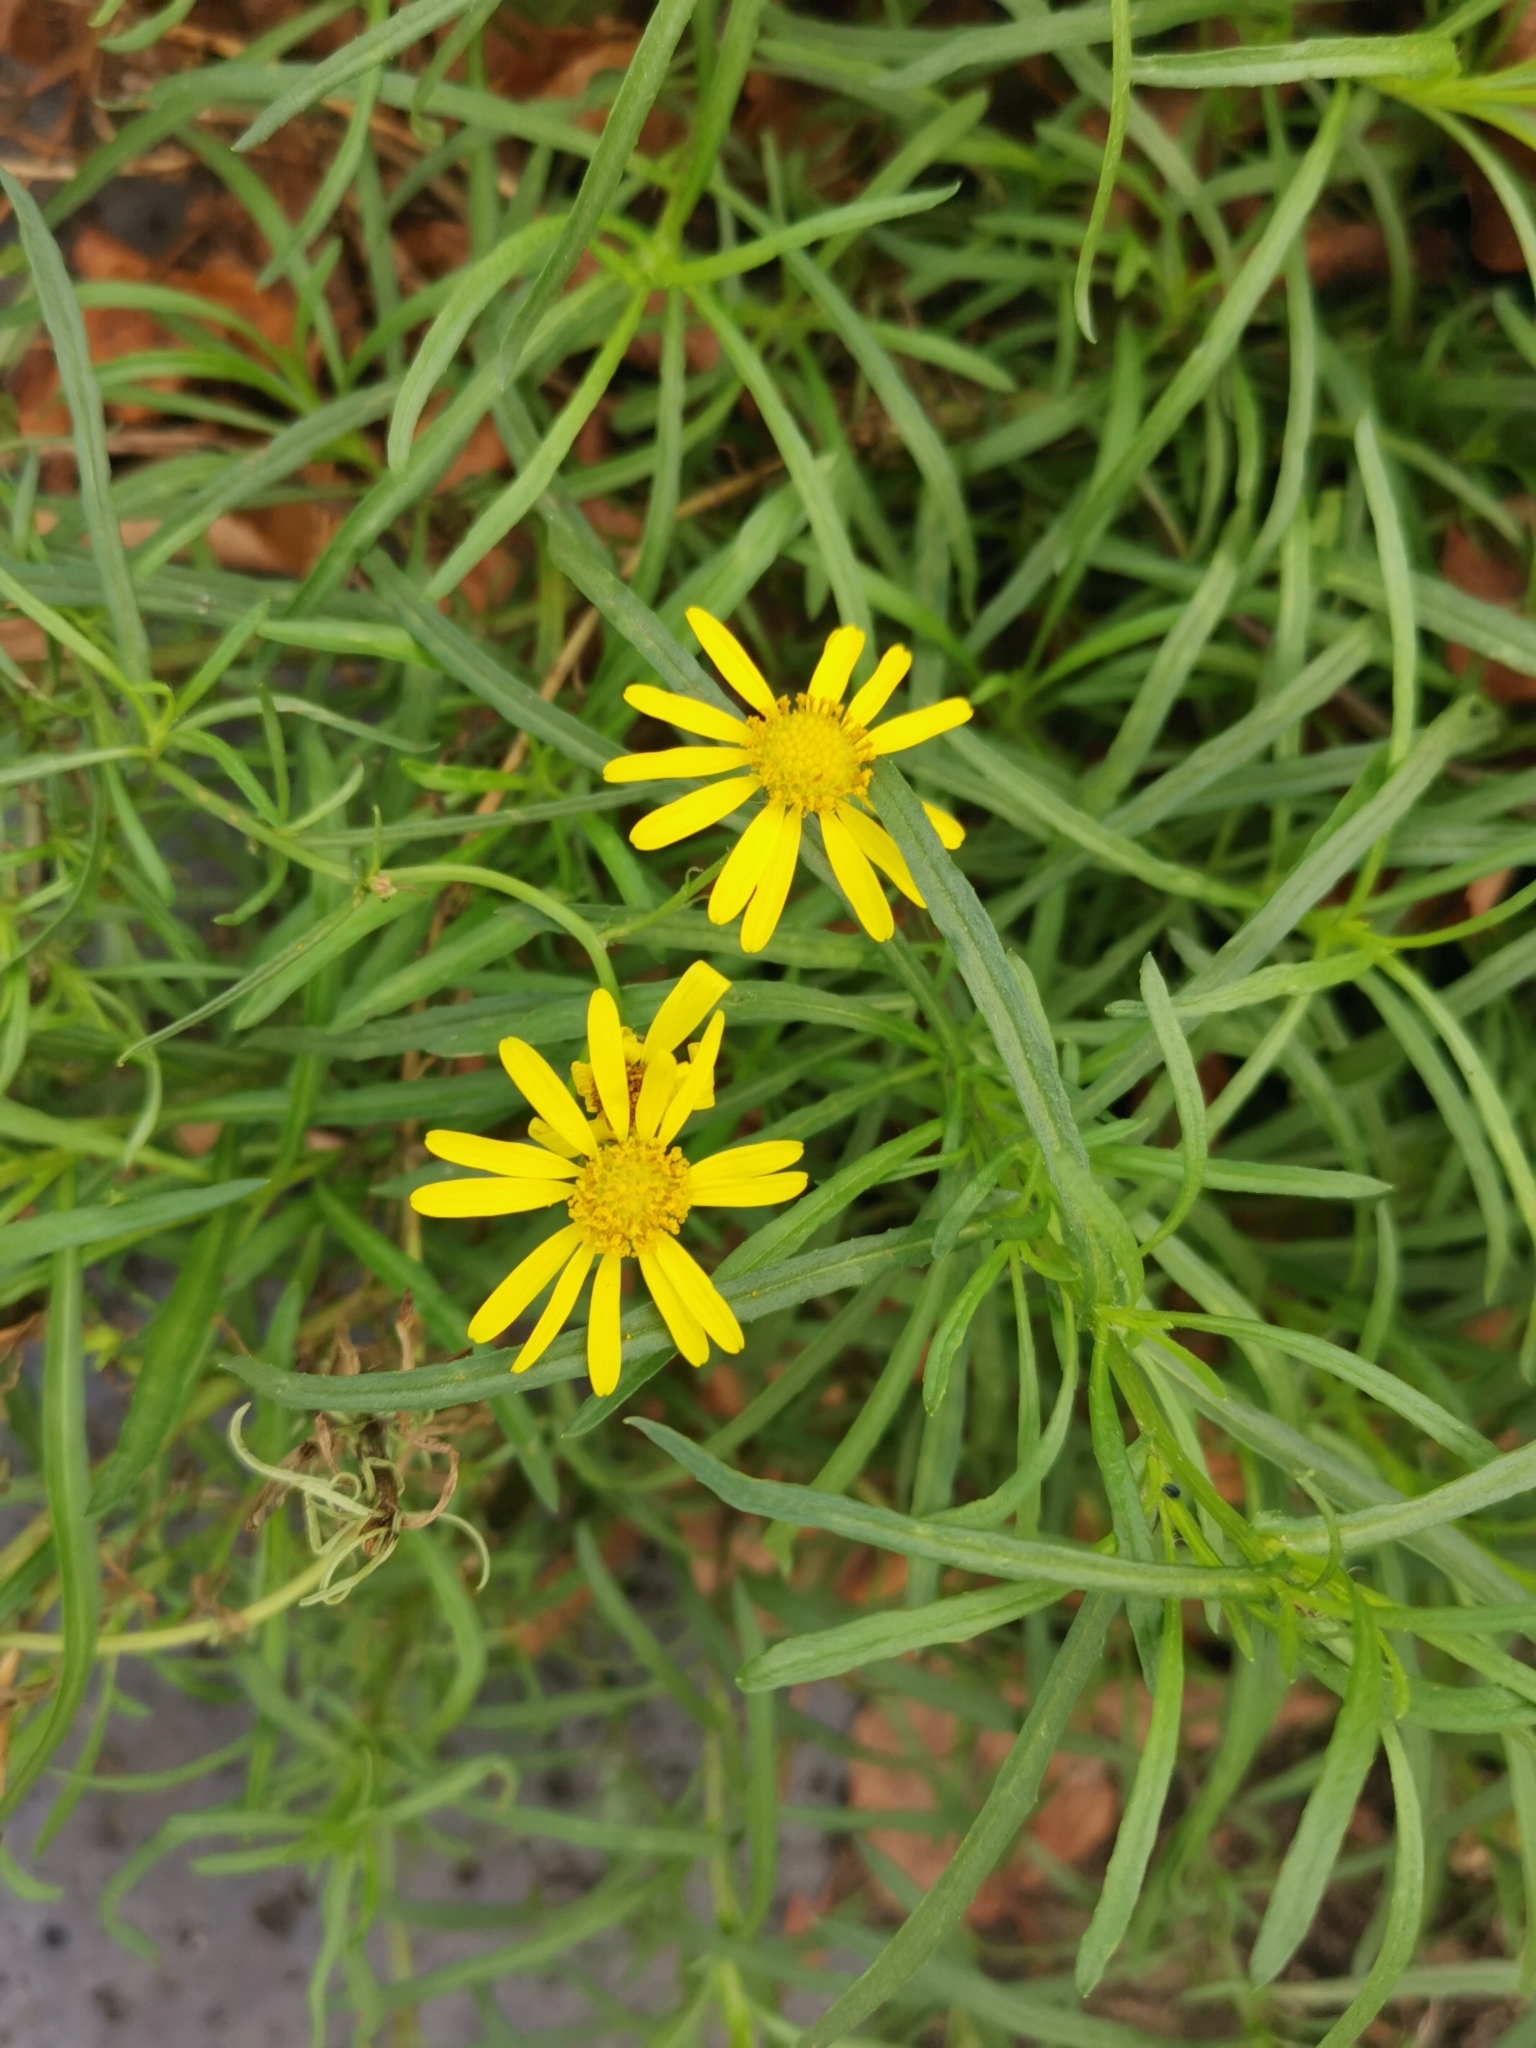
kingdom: Plantae
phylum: Tracheophyta
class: Magnoliopsida
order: Asterales
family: Asteraceae
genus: Senecio
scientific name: Senecio inaequidens
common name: Narrow-leaved ragwort
